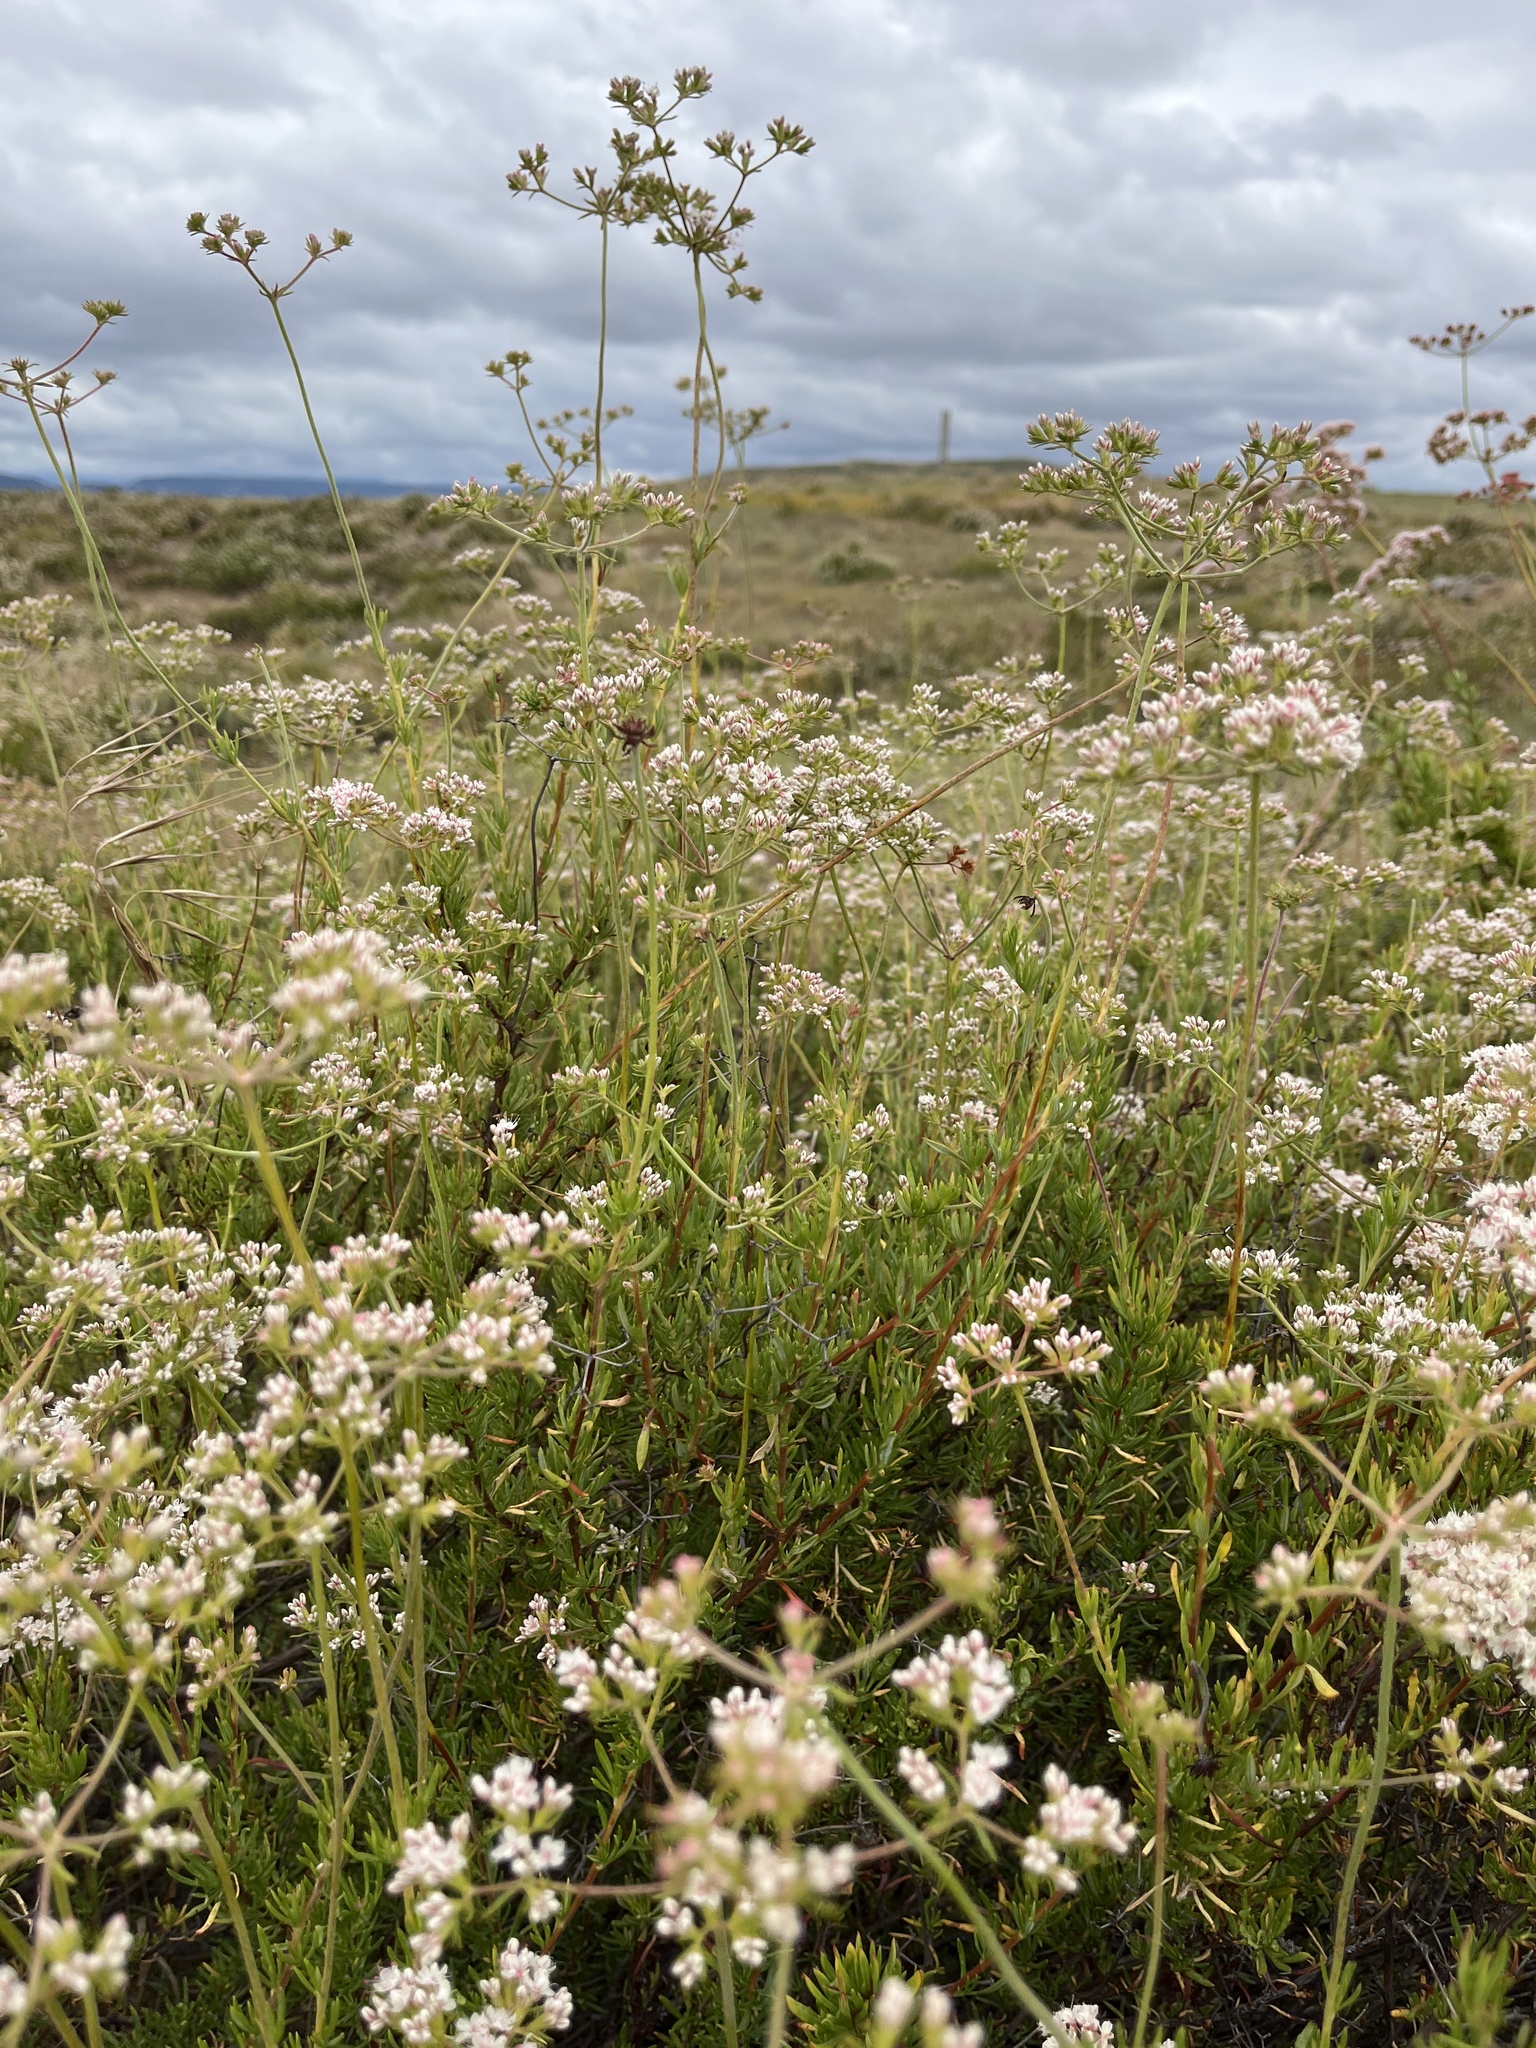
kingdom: Plantae
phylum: Tracheophyta
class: Magnoliopsida
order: Caryophyllales
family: Polygonaceae
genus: Eriogonum
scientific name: Eriogonum fasciculatum
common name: California wild buckwheat
